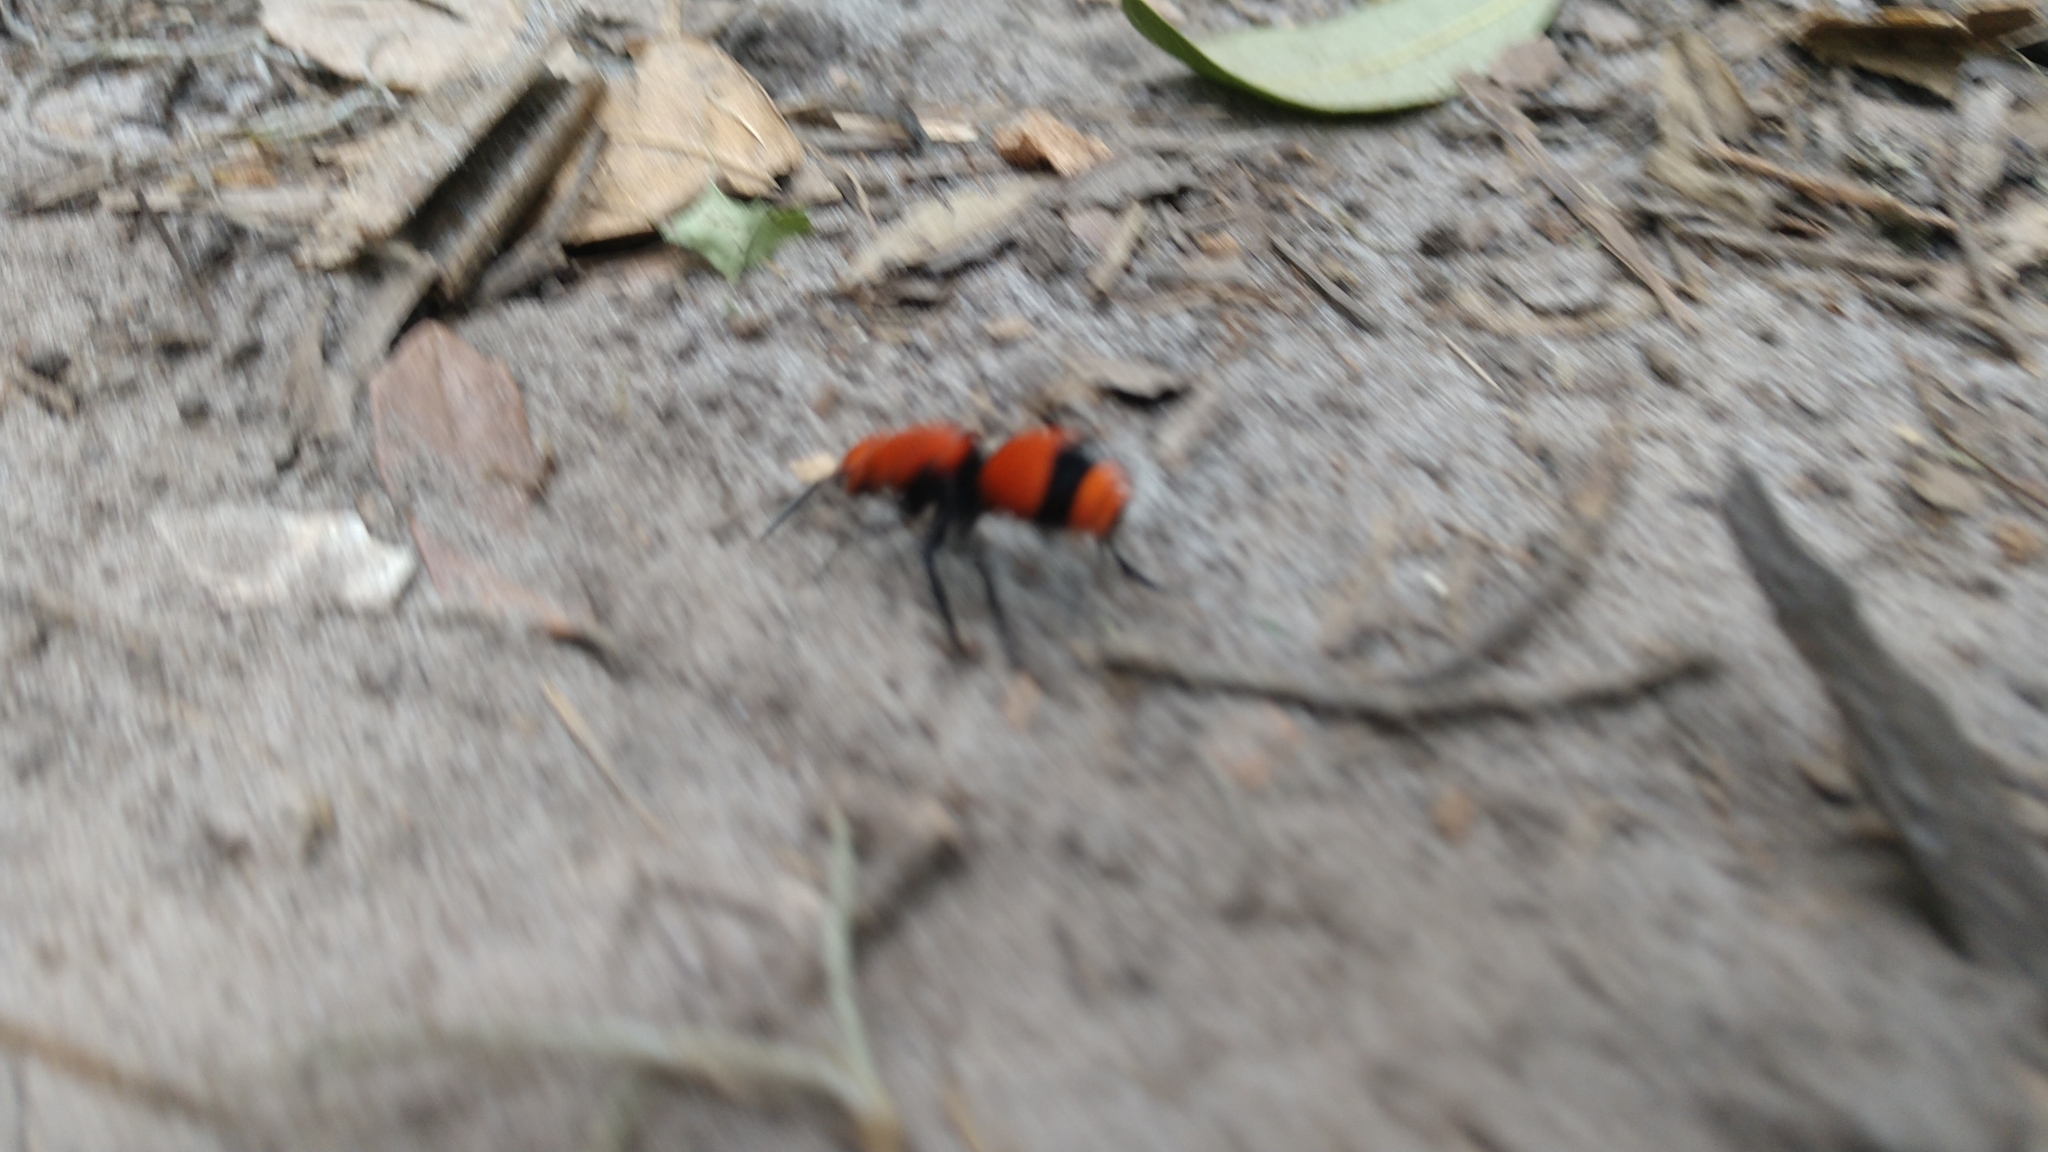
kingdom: Animalia
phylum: Arthropoda
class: Insecta
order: Hymenoptera
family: Mutillidae
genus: Dasymutilla
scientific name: Dasymutilla occidentalis
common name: Common eastern velvet ant
